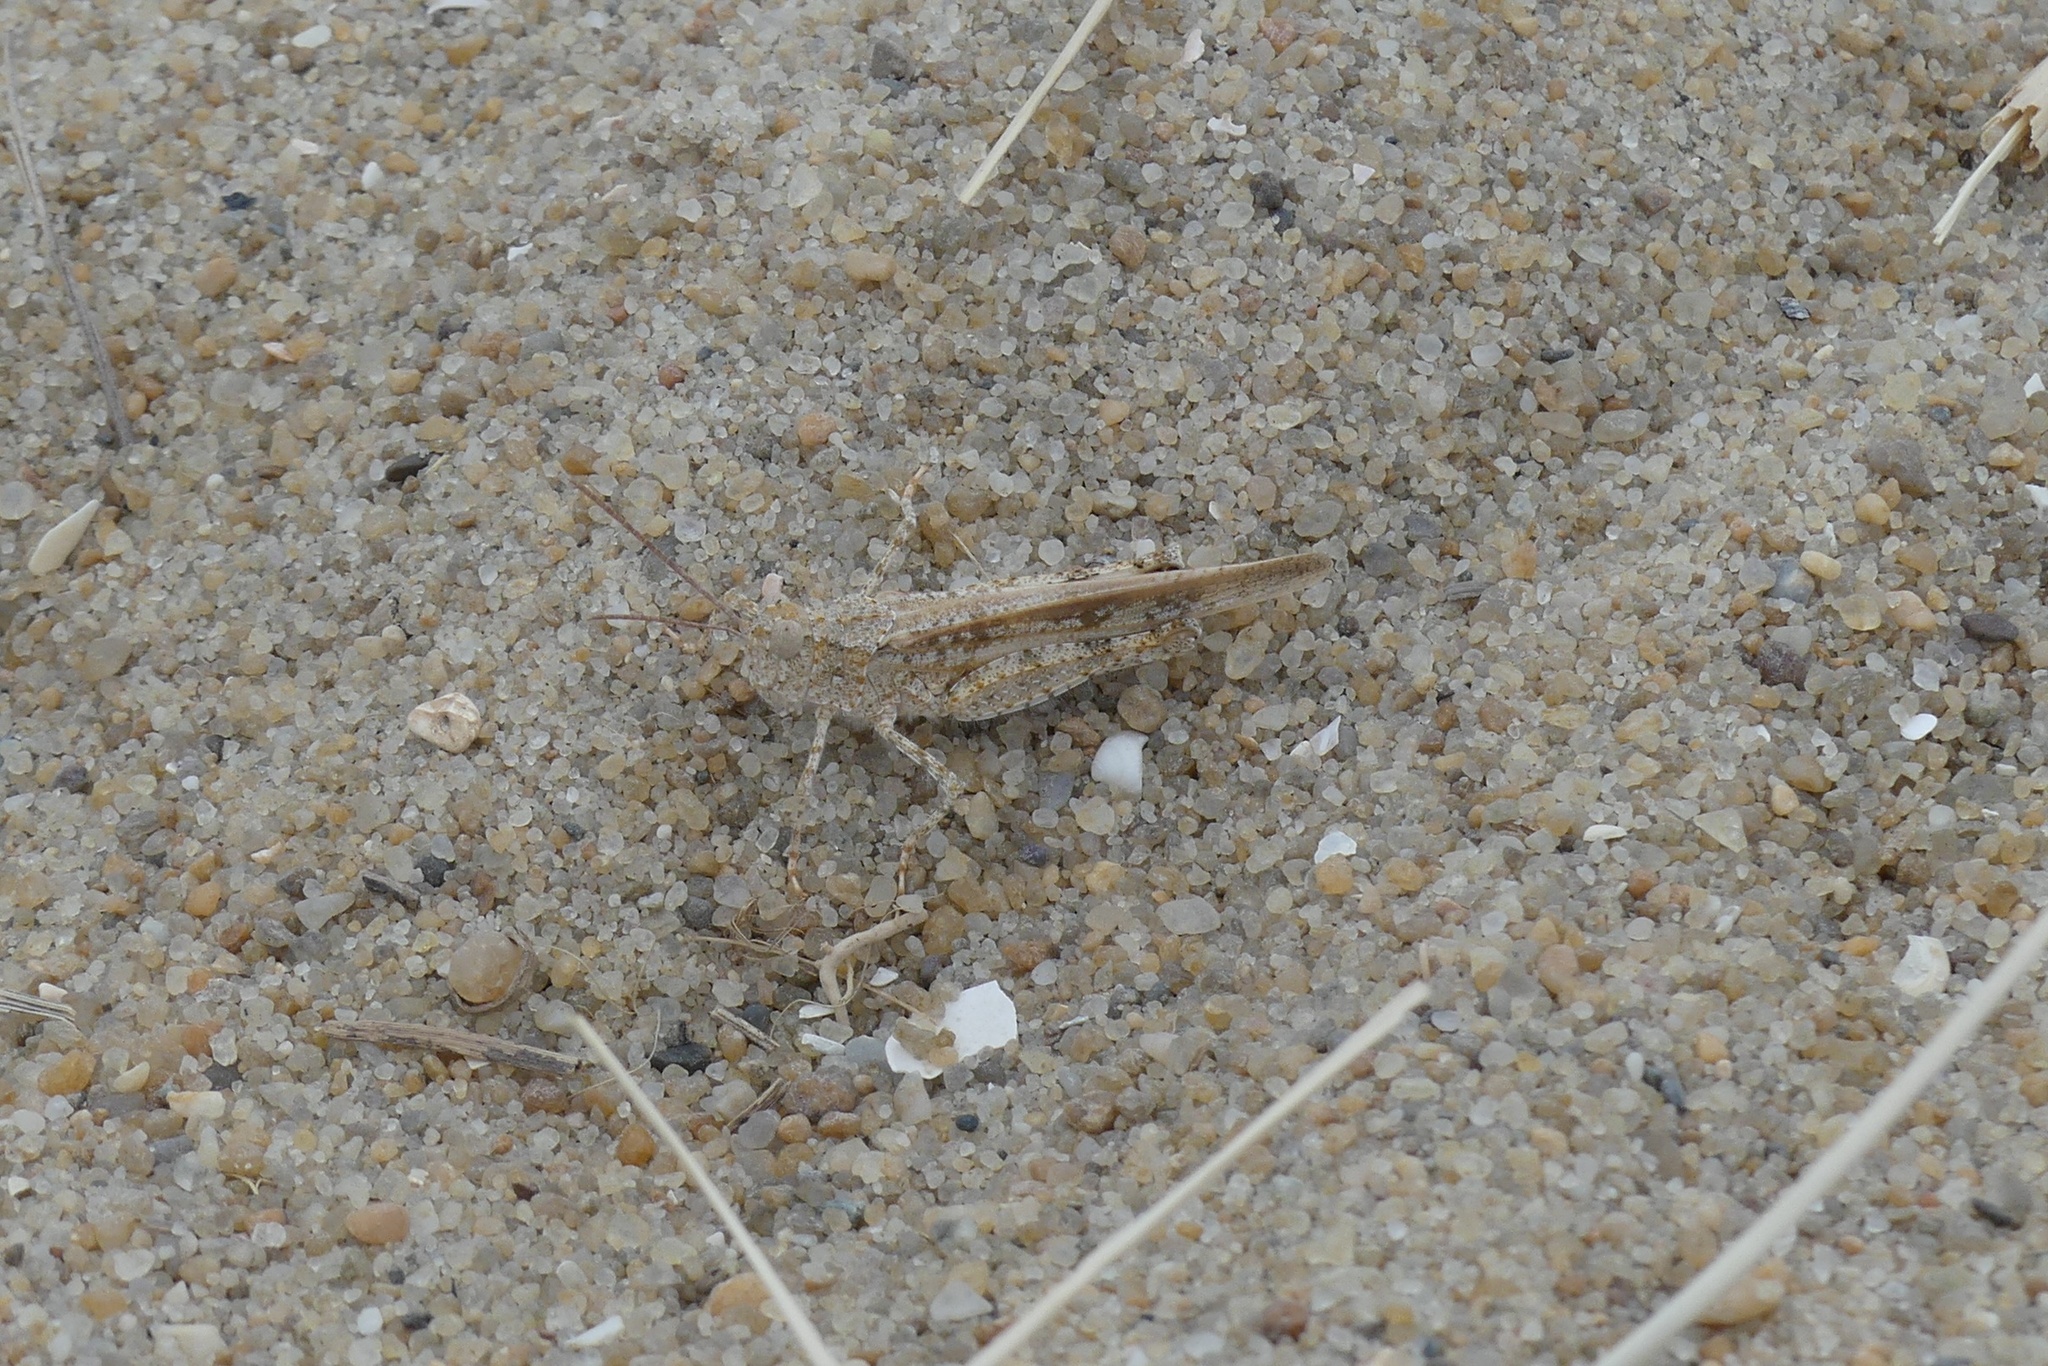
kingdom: Animalia
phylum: Arthropoda
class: Insecta
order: Orthoptera
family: Acrididae
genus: Trimerotropis
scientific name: Trimerotropis maritima
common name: Seaside locust
